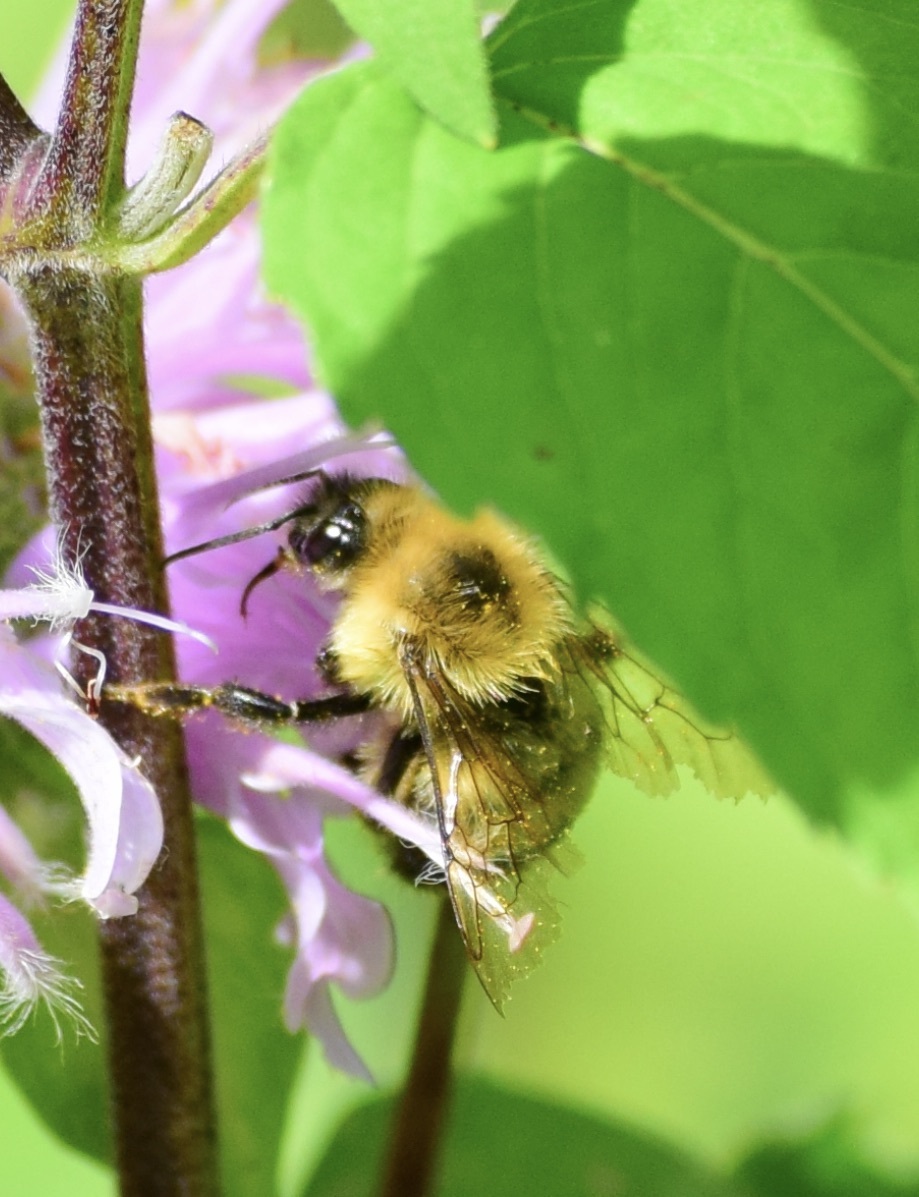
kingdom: Animalia
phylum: Arthropoda
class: Insecta
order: Hymenoptera
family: Apidae
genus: Bombus
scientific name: Bombus bimaculatus
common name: Two-spotted bumble bee
